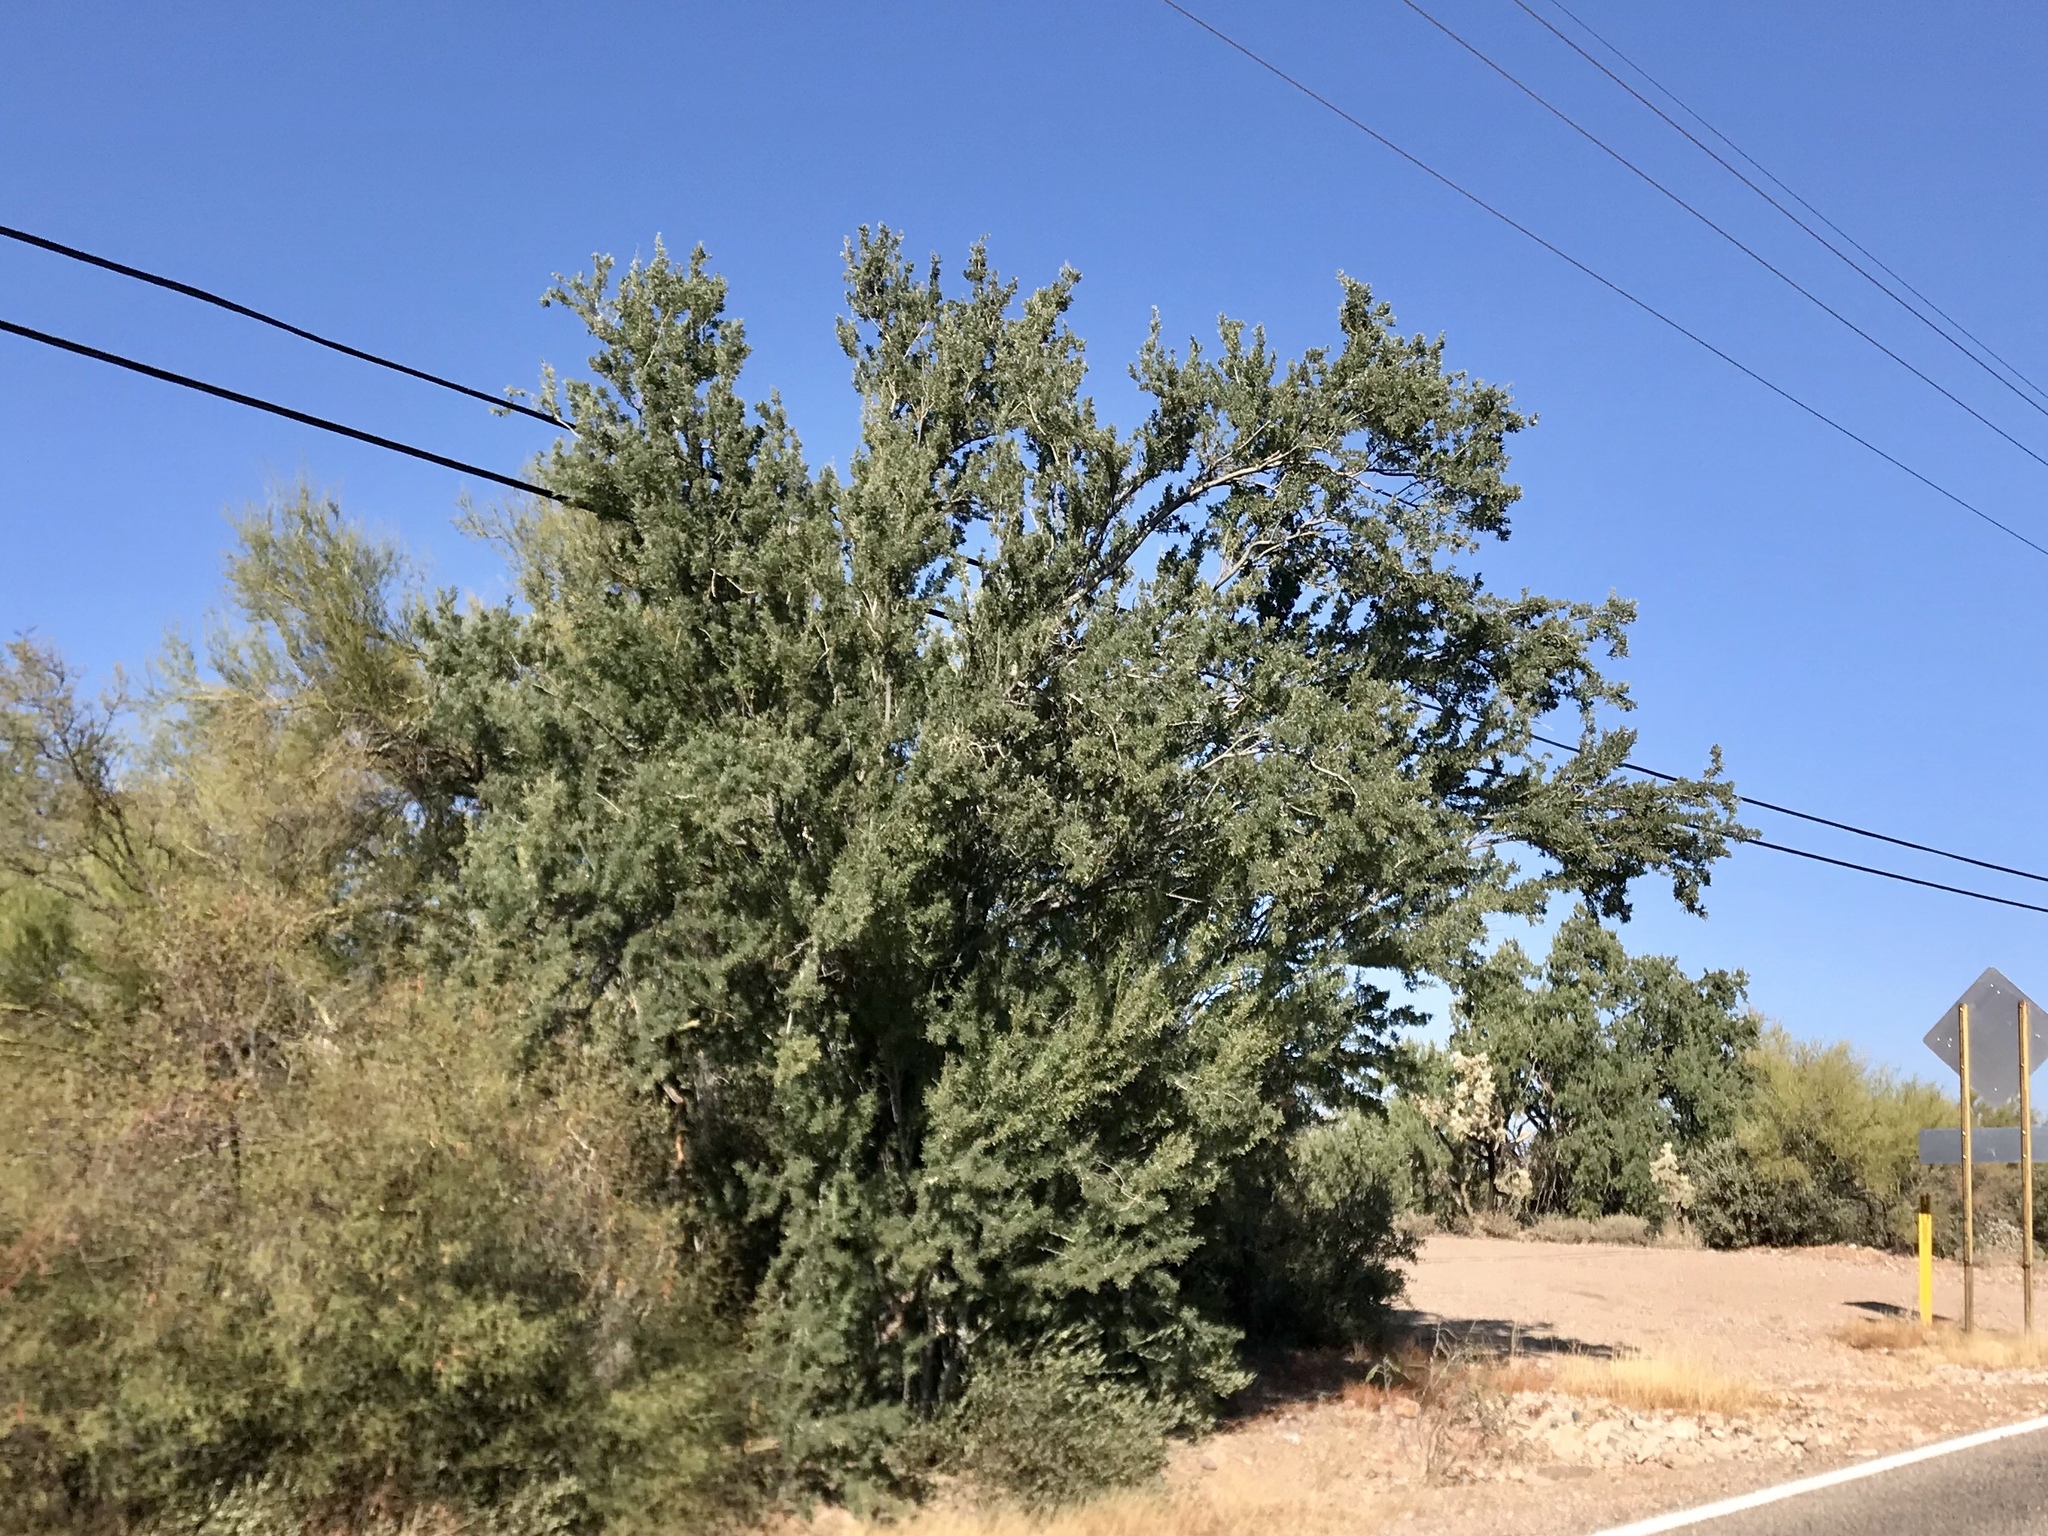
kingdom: Plantae
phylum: Tracheophyta
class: Magnoliopsida
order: Fabales
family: Fabaceae
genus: Olneya
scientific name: Olneya tesota
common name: Desert ironwood
